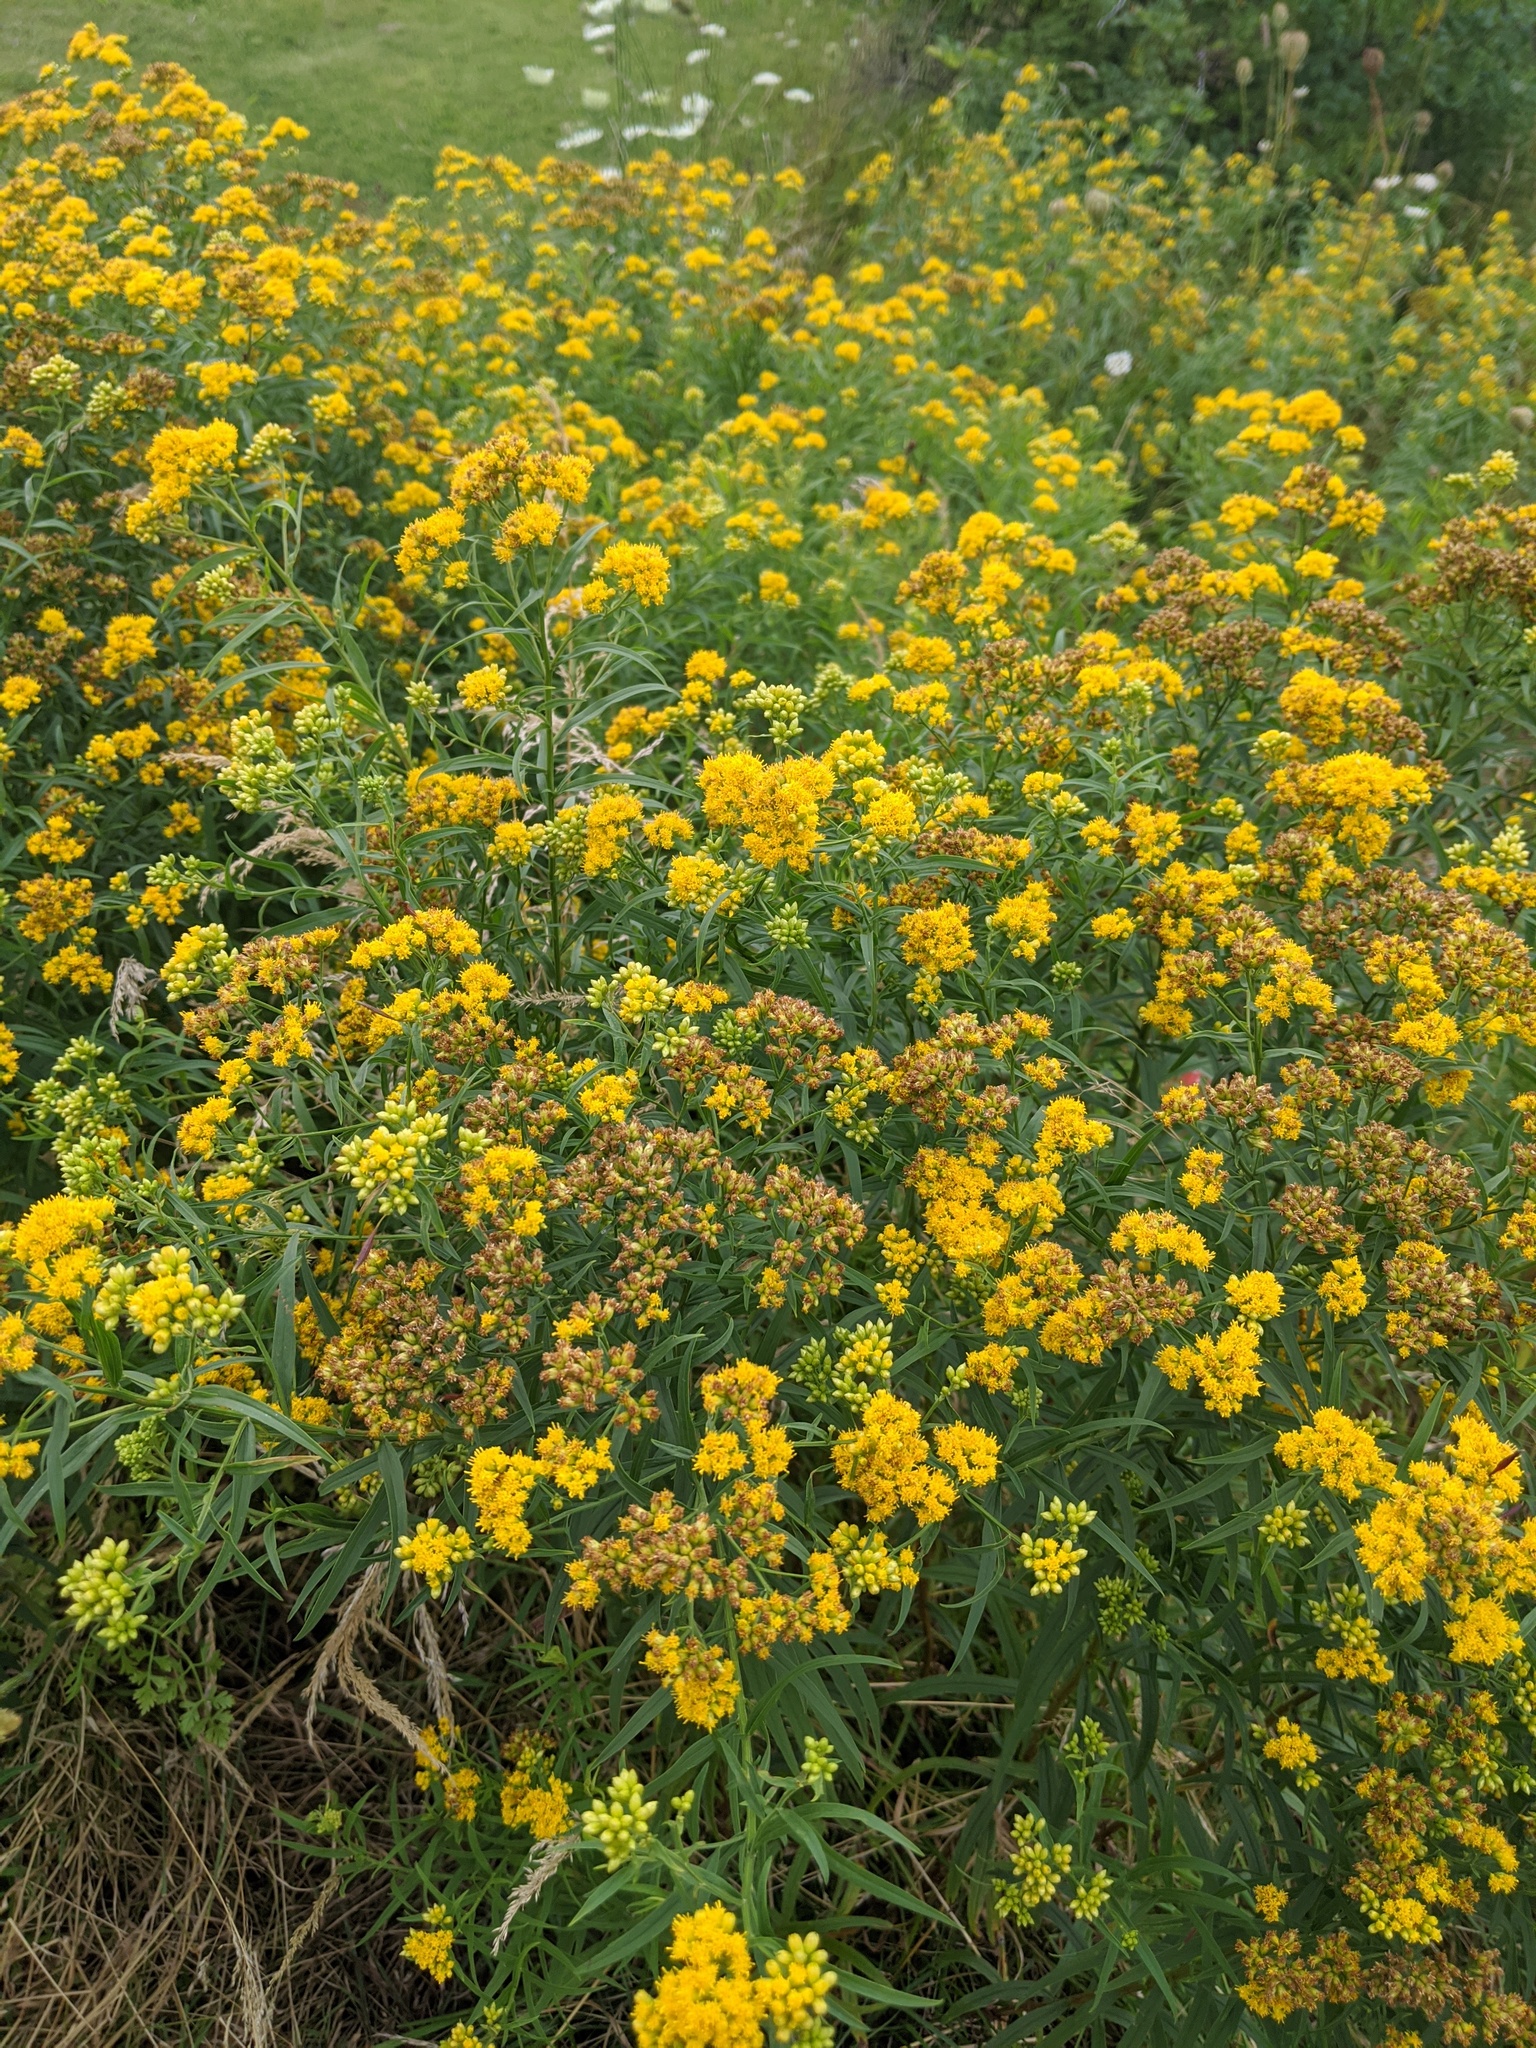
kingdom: Plantae
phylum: Tracheophyta
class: Magnoliopsida
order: Asterales
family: Asteraceae
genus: Euthamia
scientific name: Euthamia graminifolia
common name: Common goldentop
